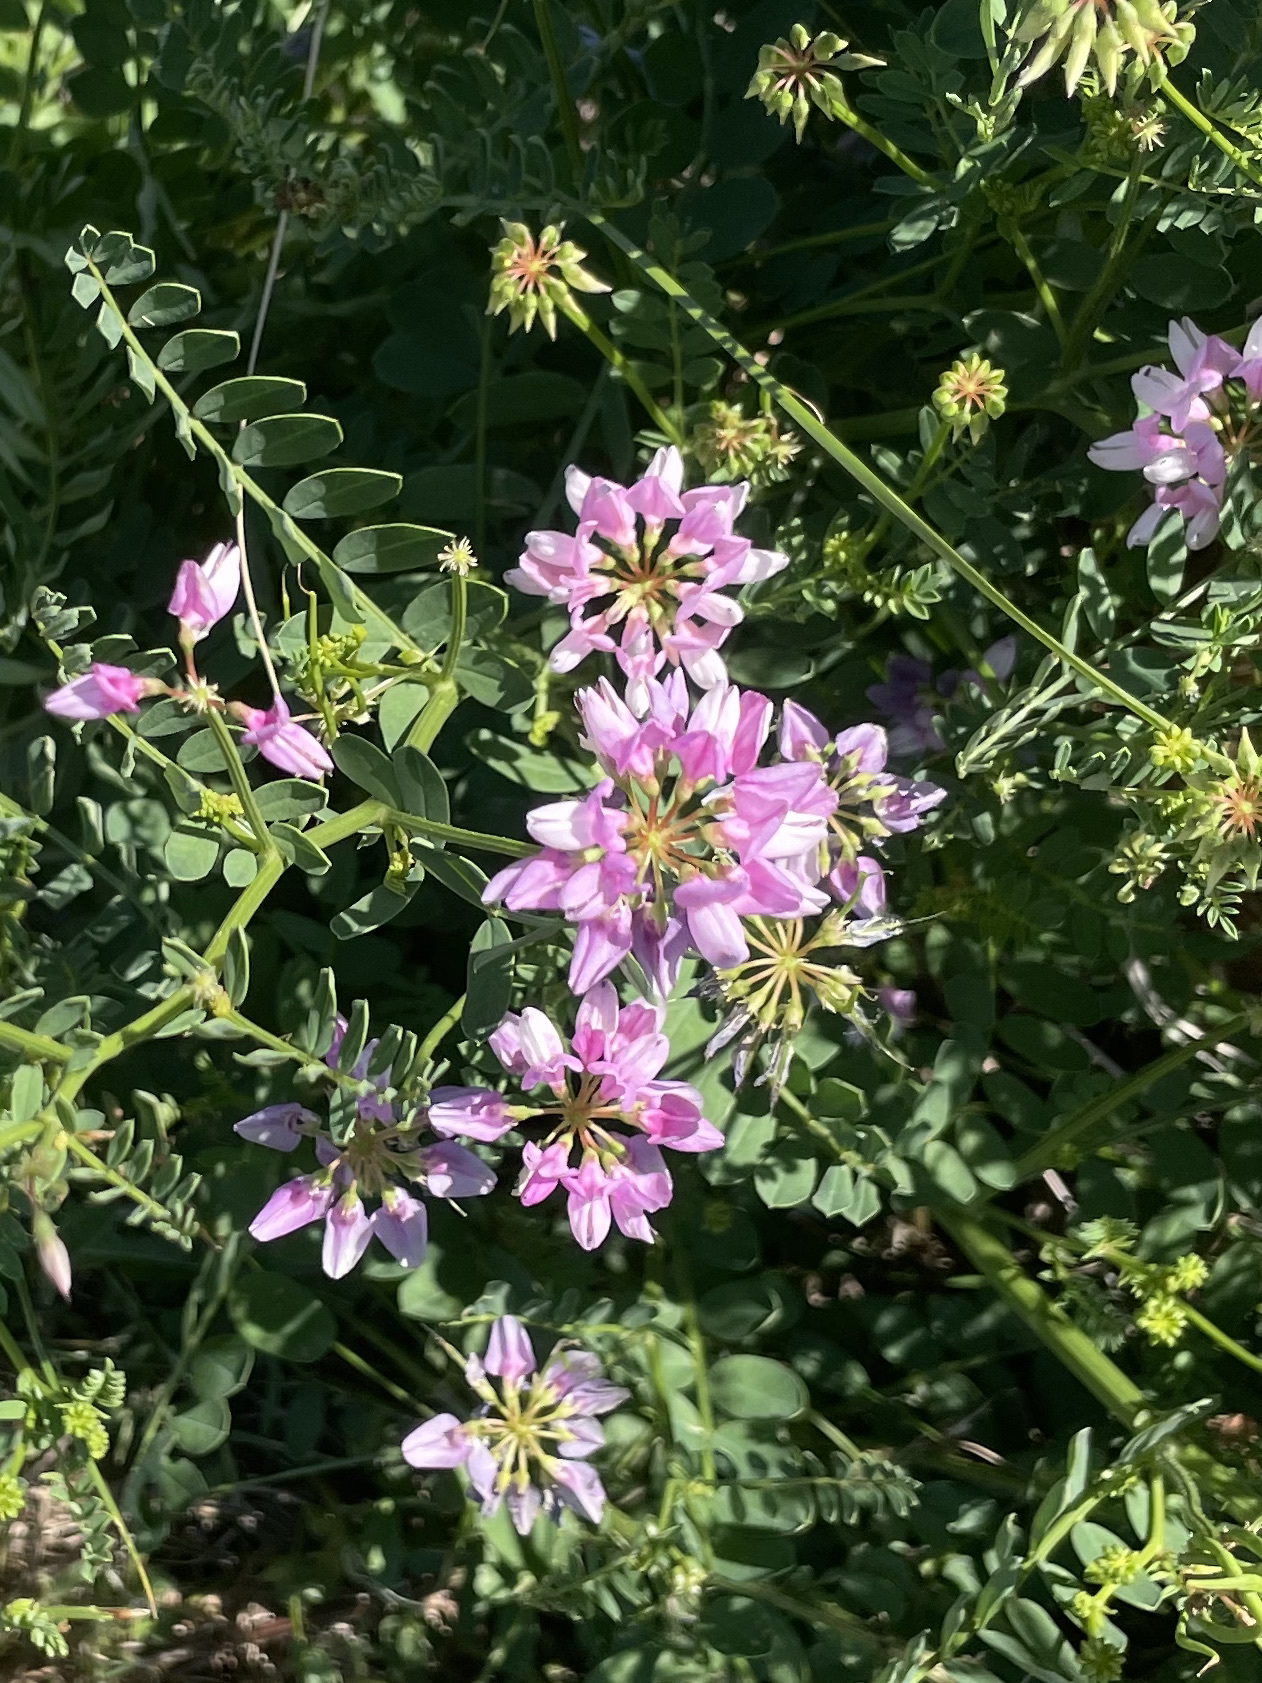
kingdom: Plantae
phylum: Tracheophyta
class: Magnoliopsida
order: Fabales
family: Fabaceae
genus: Coronilla
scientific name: Coronilla varia
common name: Crownvetch
